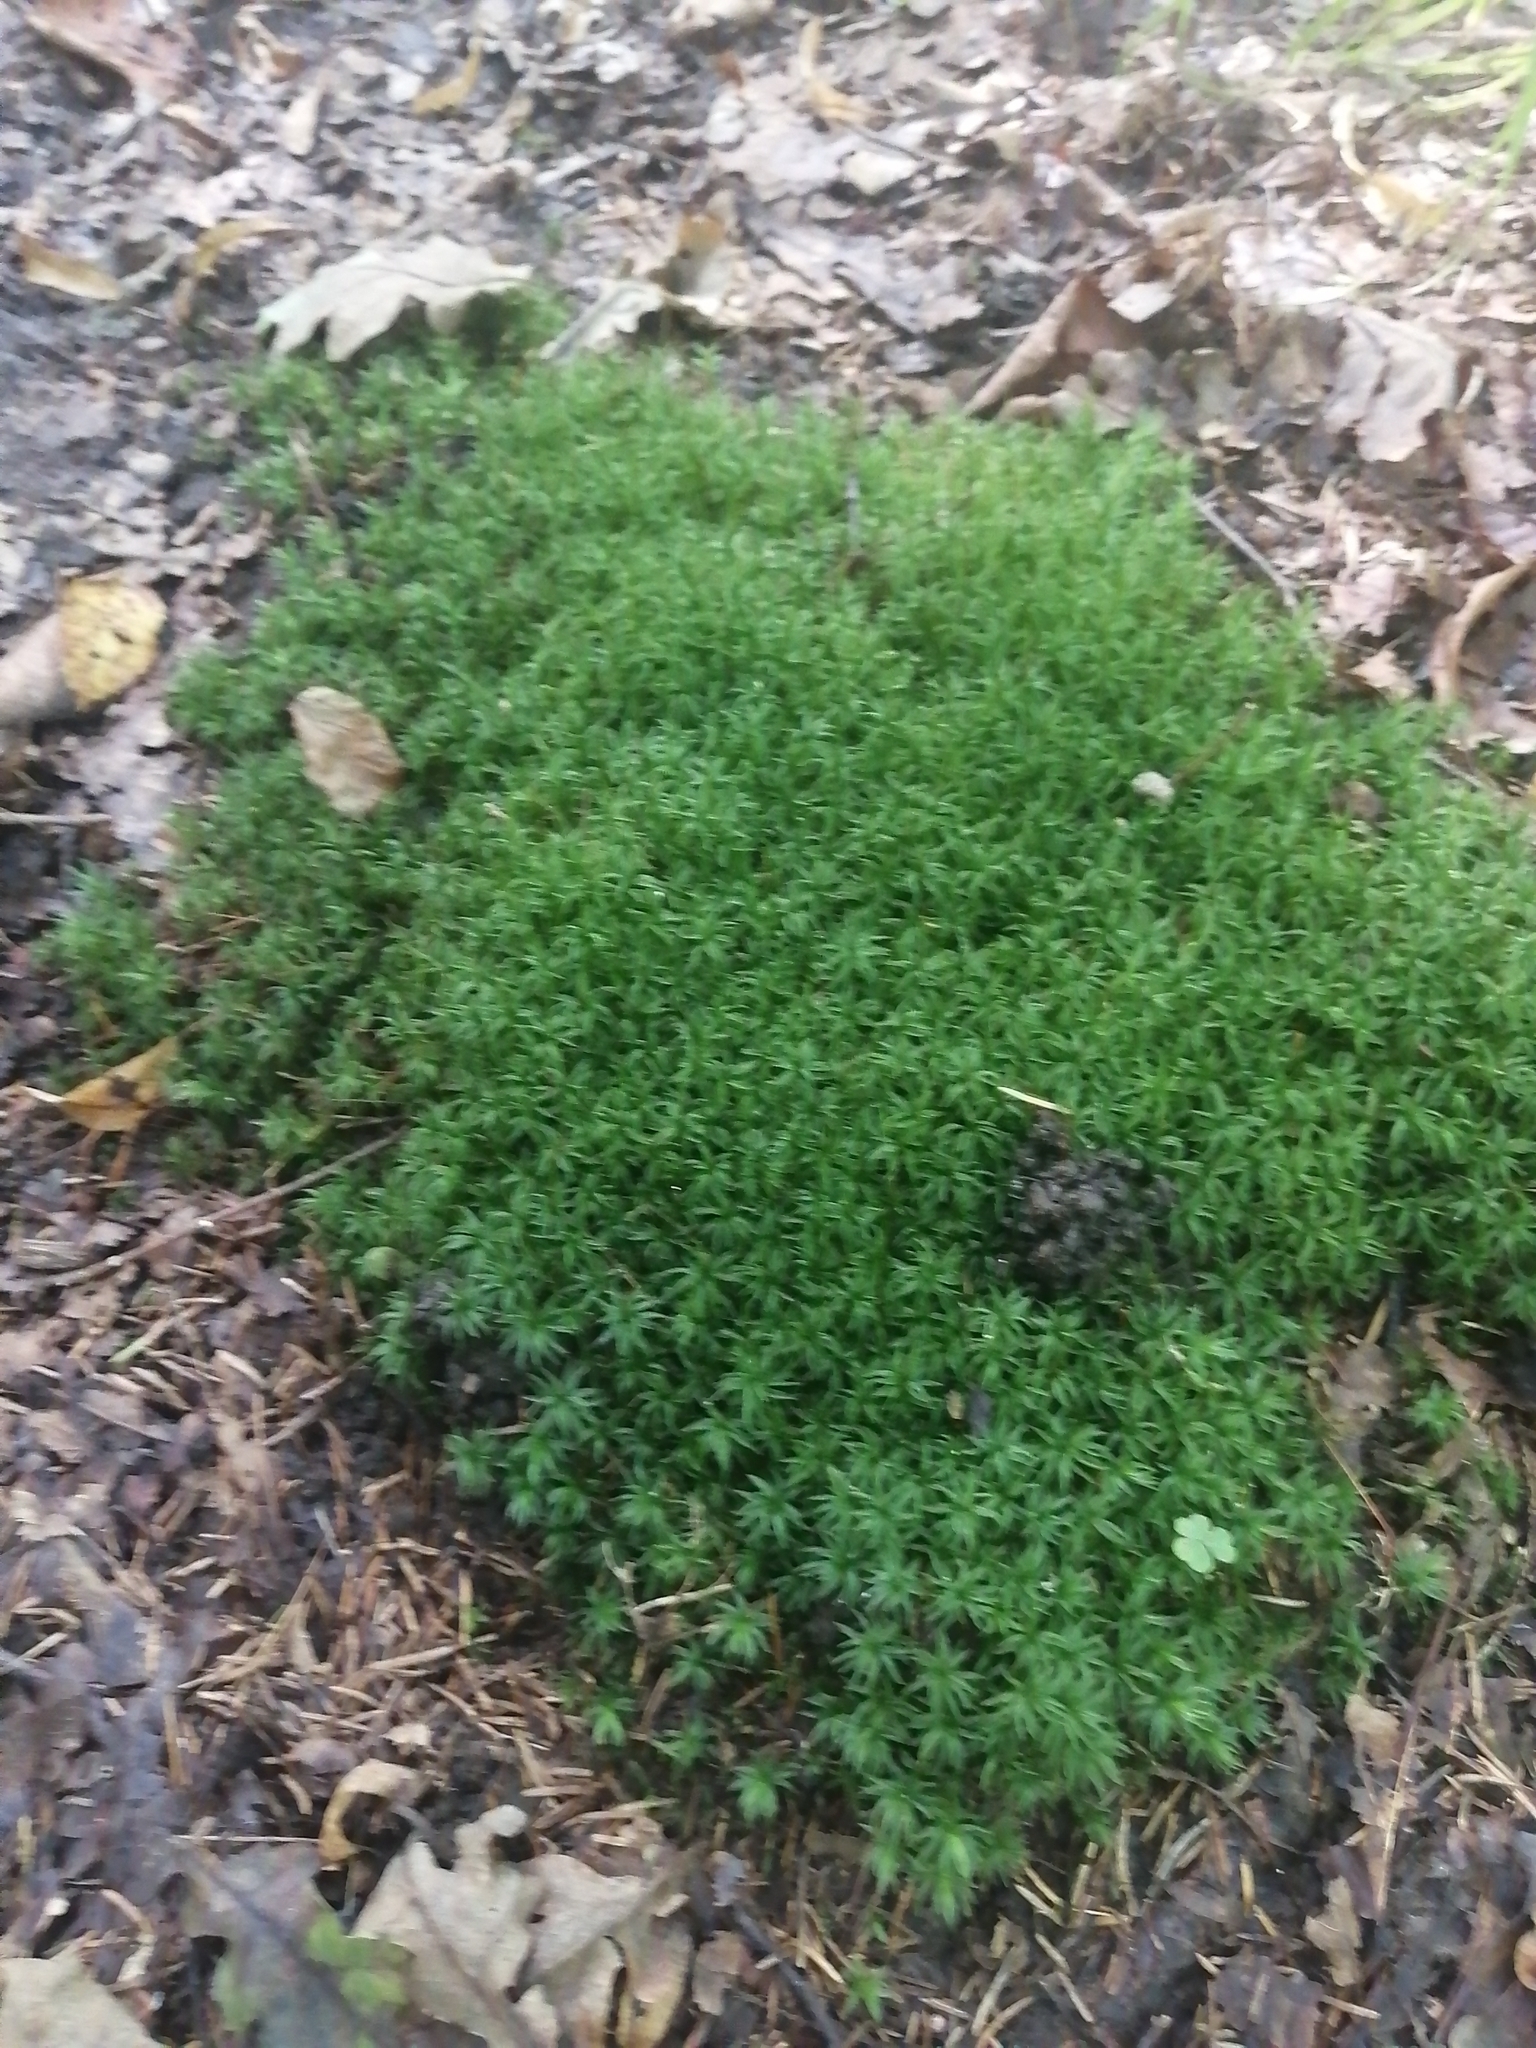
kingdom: Plantae
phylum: Bryophyta
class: Polytrichopsida
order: Polytrichales
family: Polytrichaceae
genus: Atrichum
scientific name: Atrichum undulatum
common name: Common smoothcap
